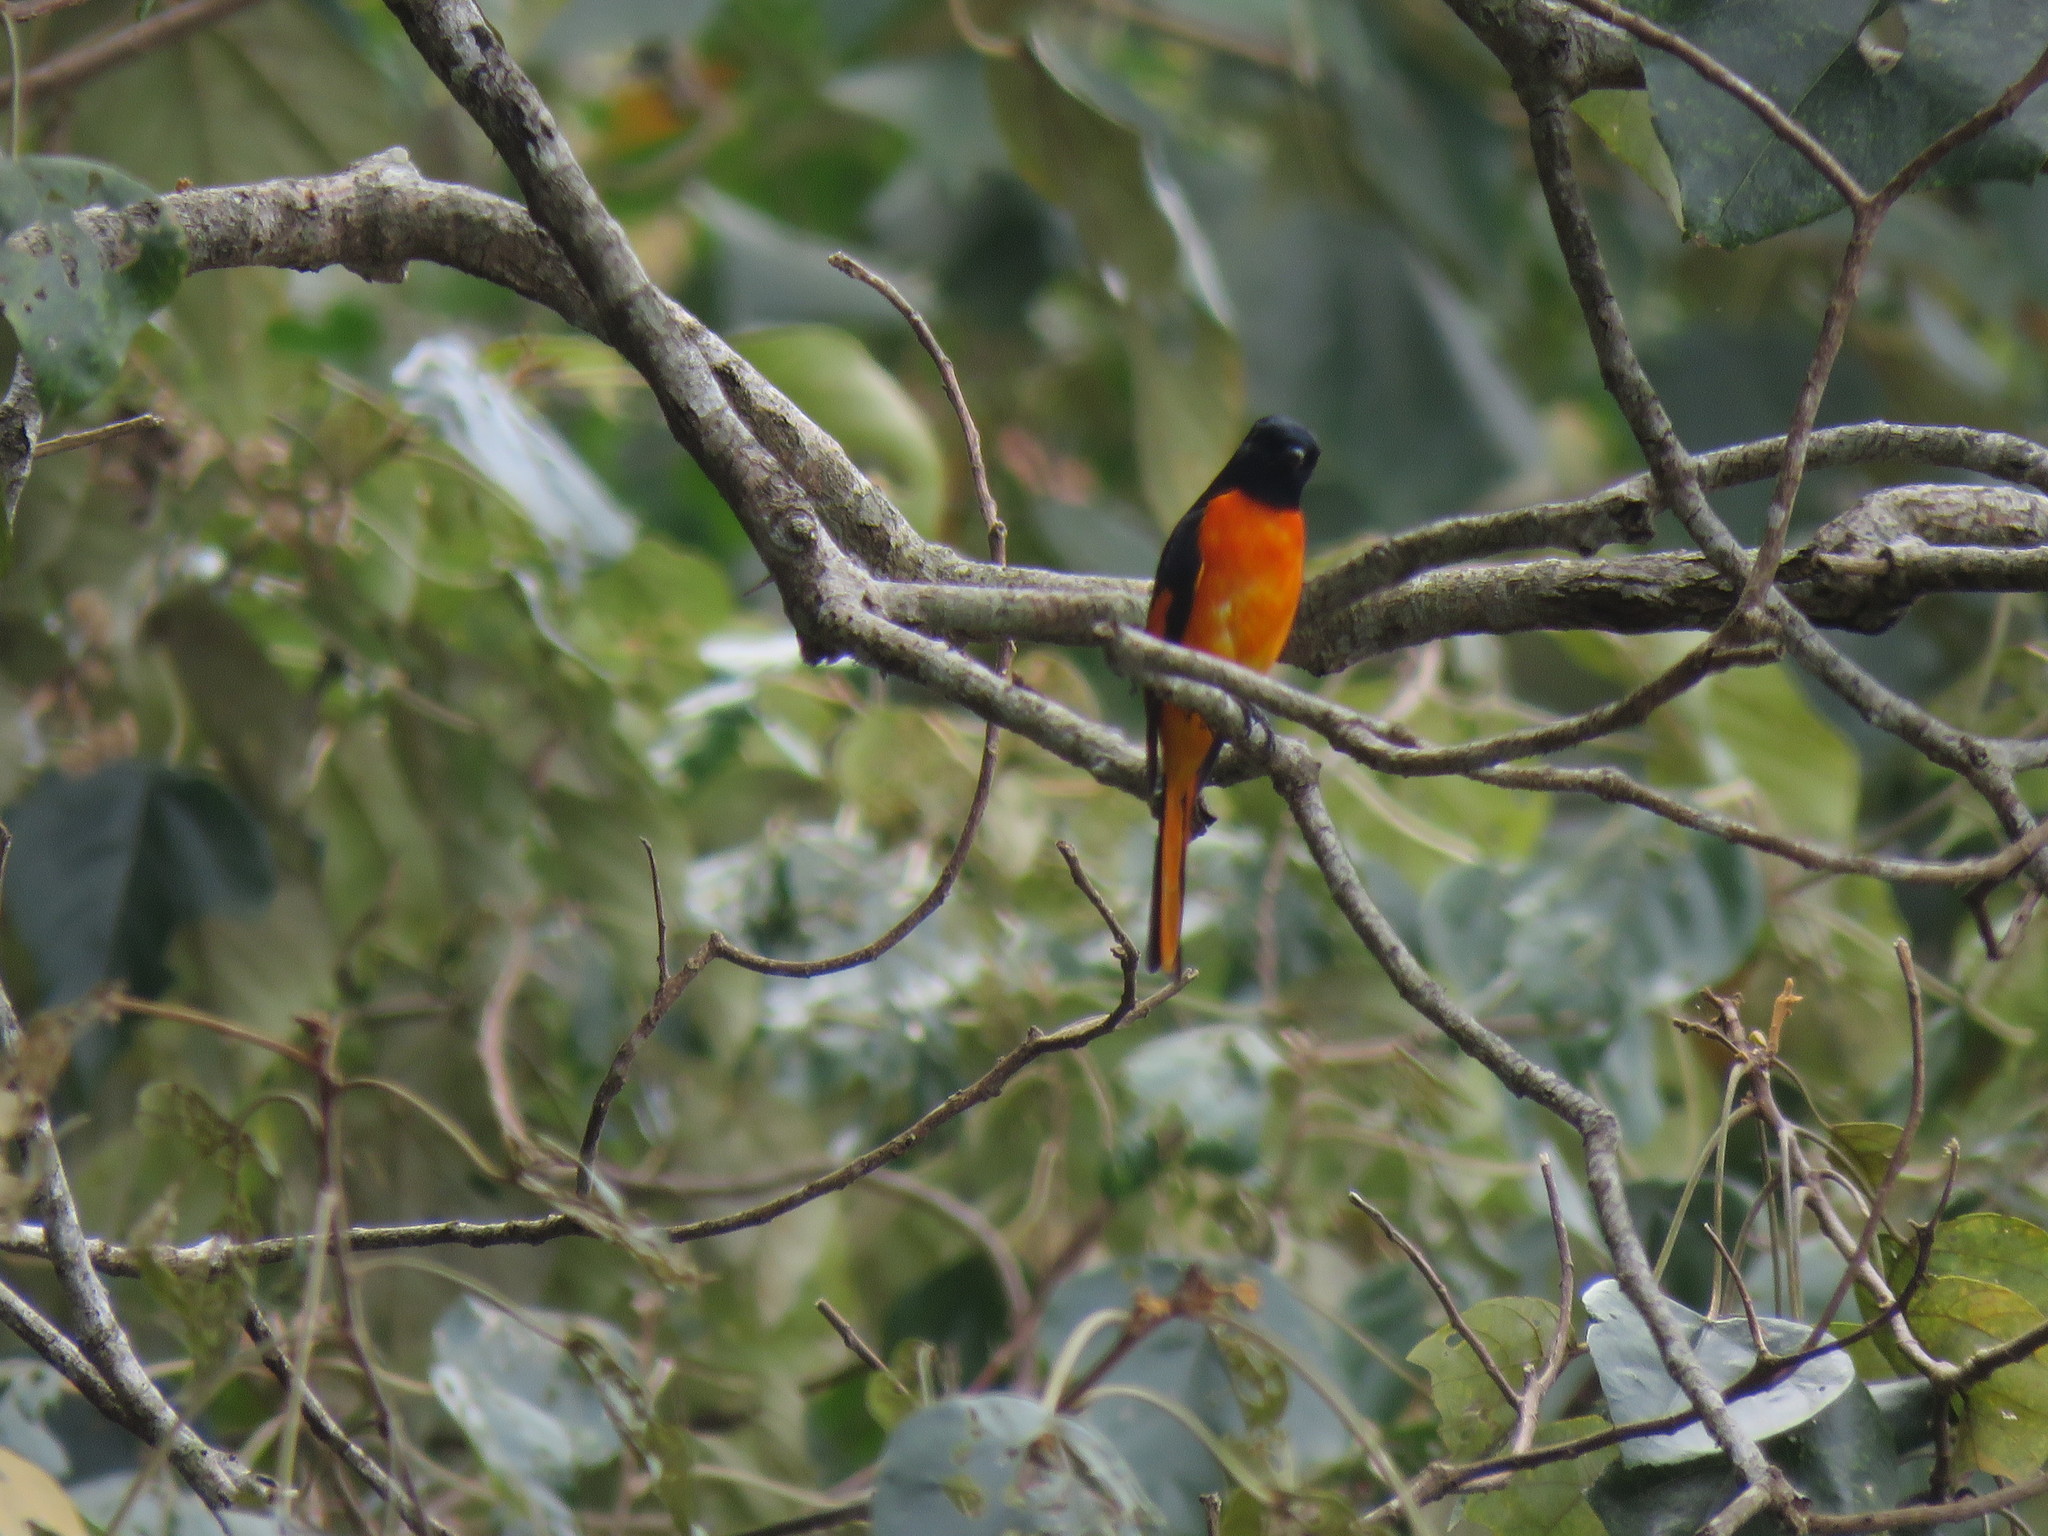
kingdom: Animalia
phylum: Chordata
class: Aves
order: Passeriformes
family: Campephagidae
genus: Pericrocotus
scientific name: Pericrocotus flammeus
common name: Orange minivet
